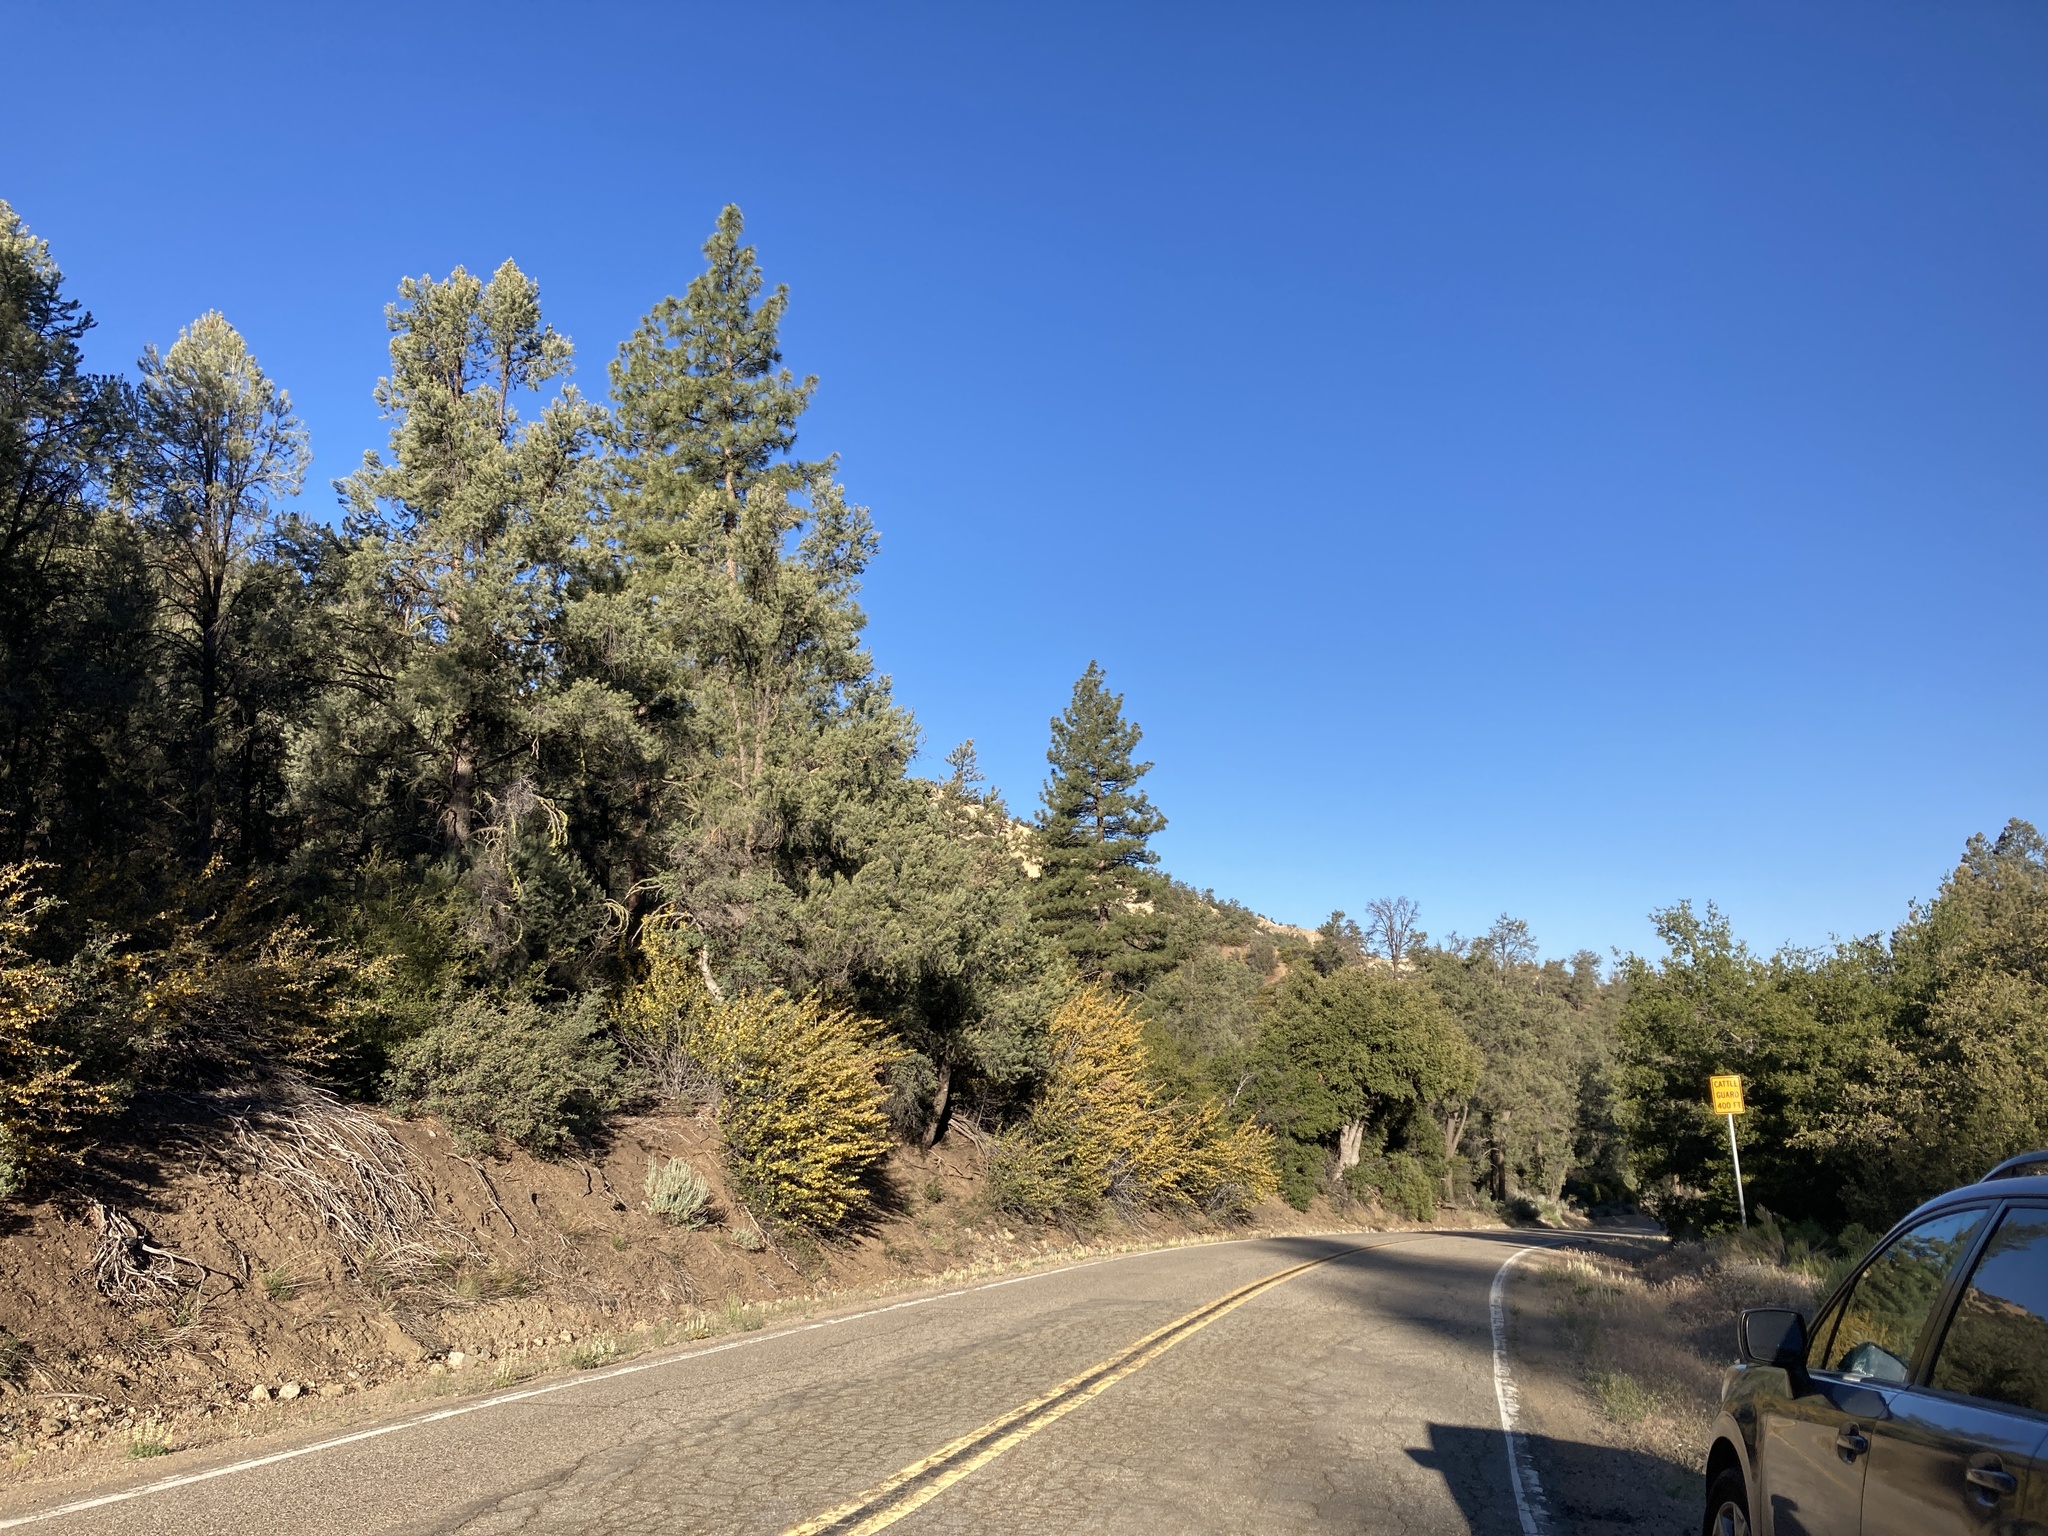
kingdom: Plantae
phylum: Tracheophyta
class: Pinopsida
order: Pinales
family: Pinaceae
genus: Pinus
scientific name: Pinus monophylla
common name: One-leaved nut pine
